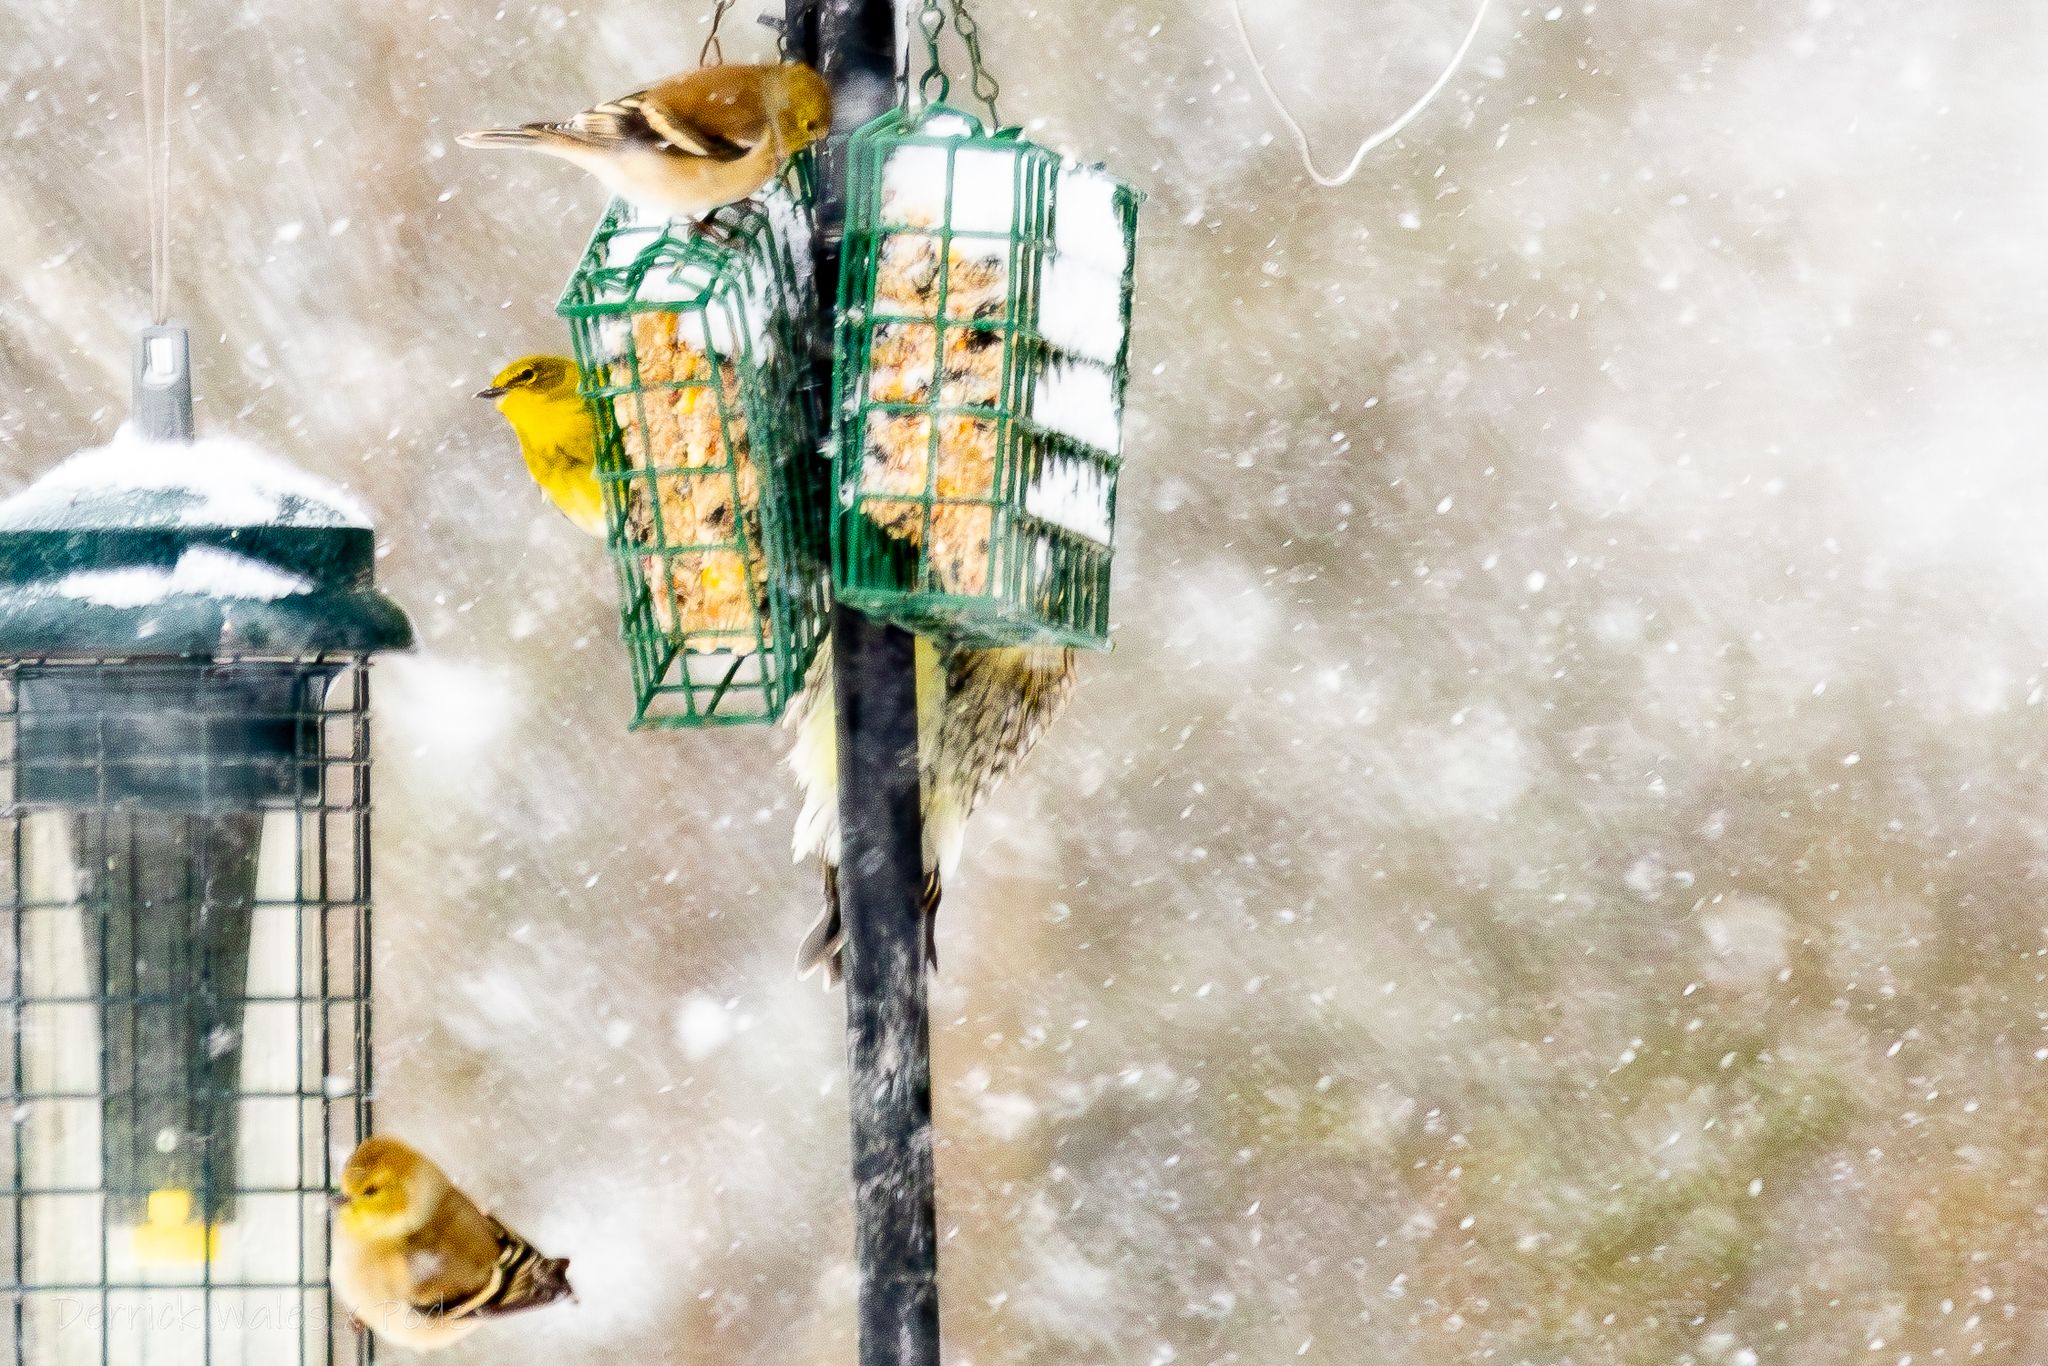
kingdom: Animalia
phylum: Chordata
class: Aves
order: Piciformes
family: Picidae
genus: Sphyrapicus
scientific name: Sphyrapicus varius
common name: Yellow-bellied sapsucker
